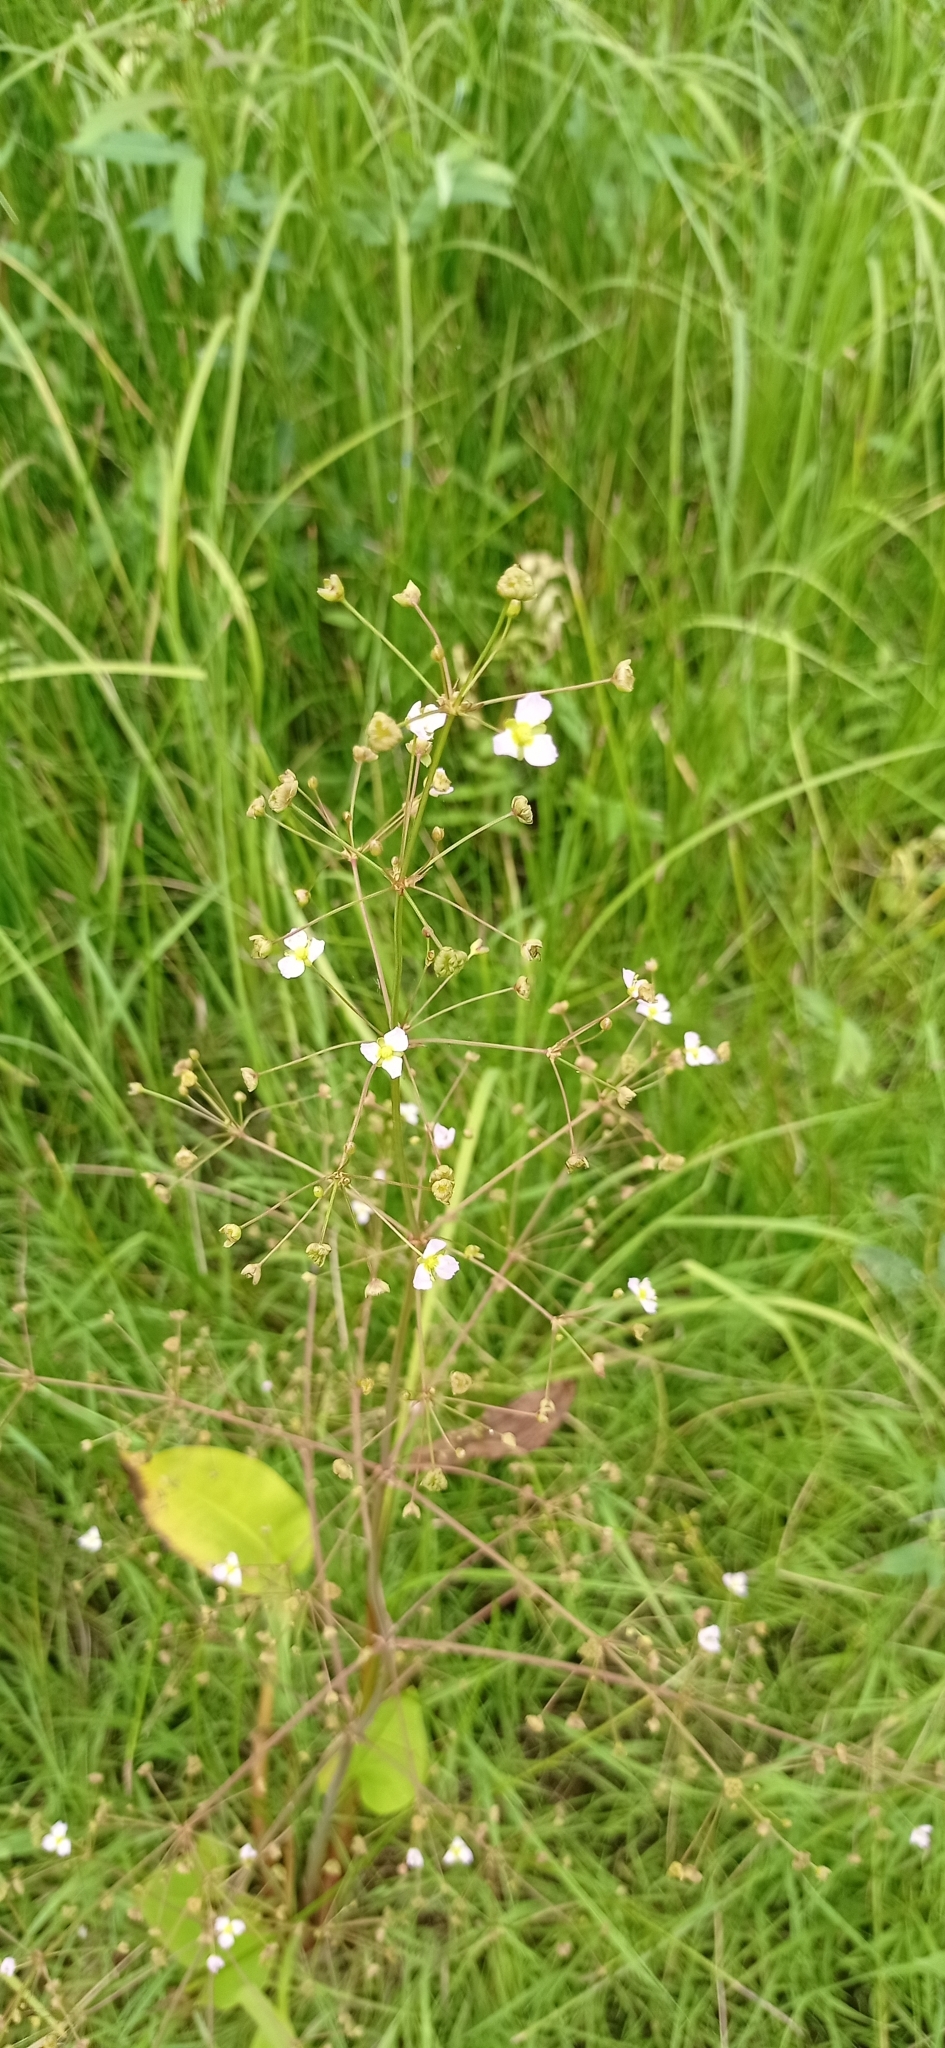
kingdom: Plantae
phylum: Tracheophyta
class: Liliopsida
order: Alismatales
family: Alismataceae
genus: Alisma
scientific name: Alisma plantago-aquatica
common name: Water-plantain
